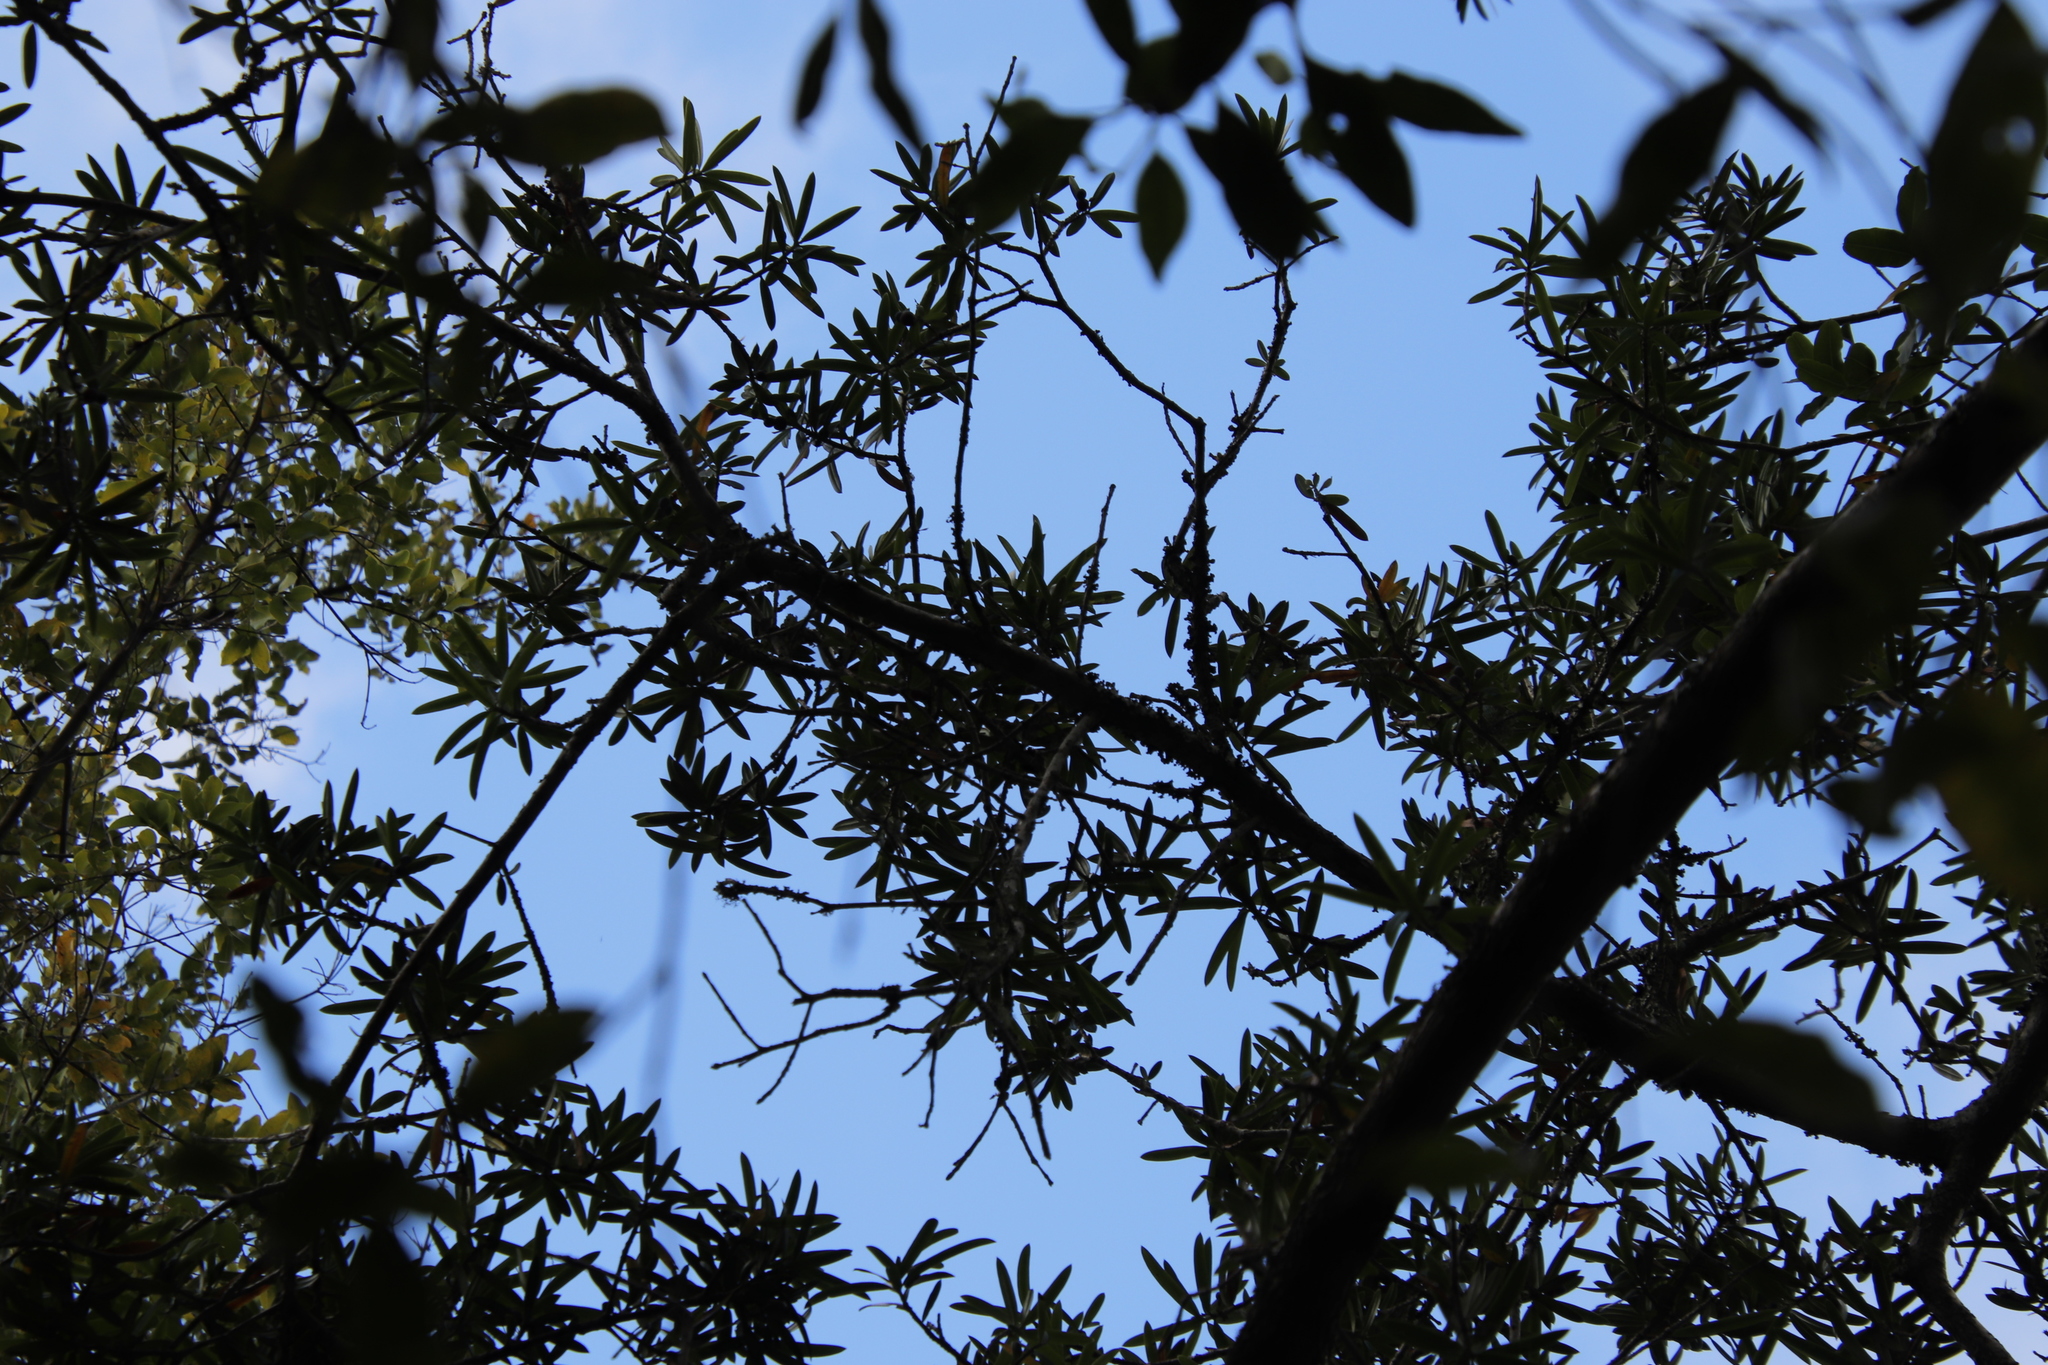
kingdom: Plantae
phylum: Tracheophyta
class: Pinopsida
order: Pinales
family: Podocarpaceae
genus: Podocarpus
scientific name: Podocarpus latifolius
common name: True yellowwood
